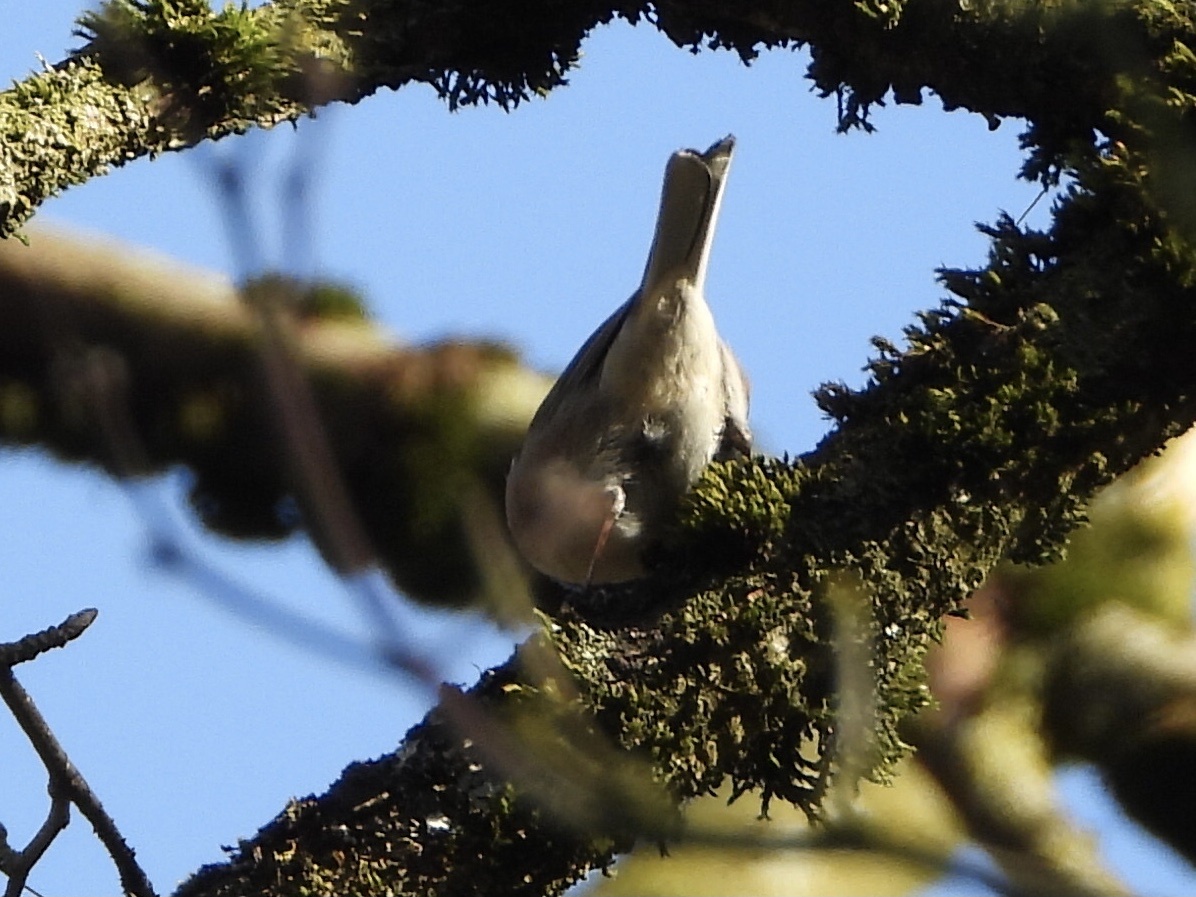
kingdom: Animalia
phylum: Chordata
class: Aves
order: Passeriformes
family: Passerellidae
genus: Junco
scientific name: Junco hyemalis
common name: Dark-eyed junco
